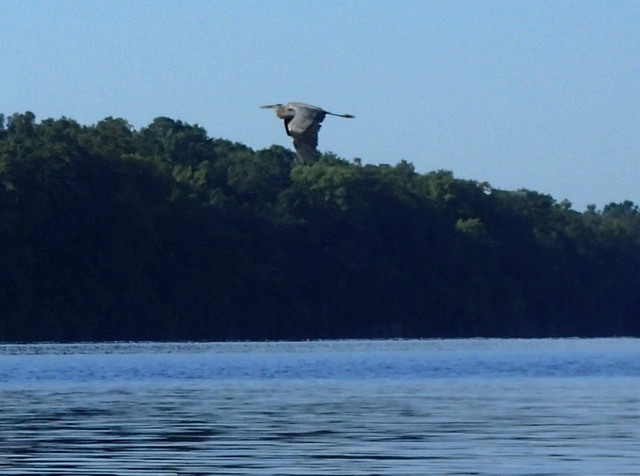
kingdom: Animalia
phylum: Chordata
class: Aves
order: Pelecaniformes
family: Ardeidae
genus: Ardea
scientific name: Ardea herodias
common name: Great blue heron
